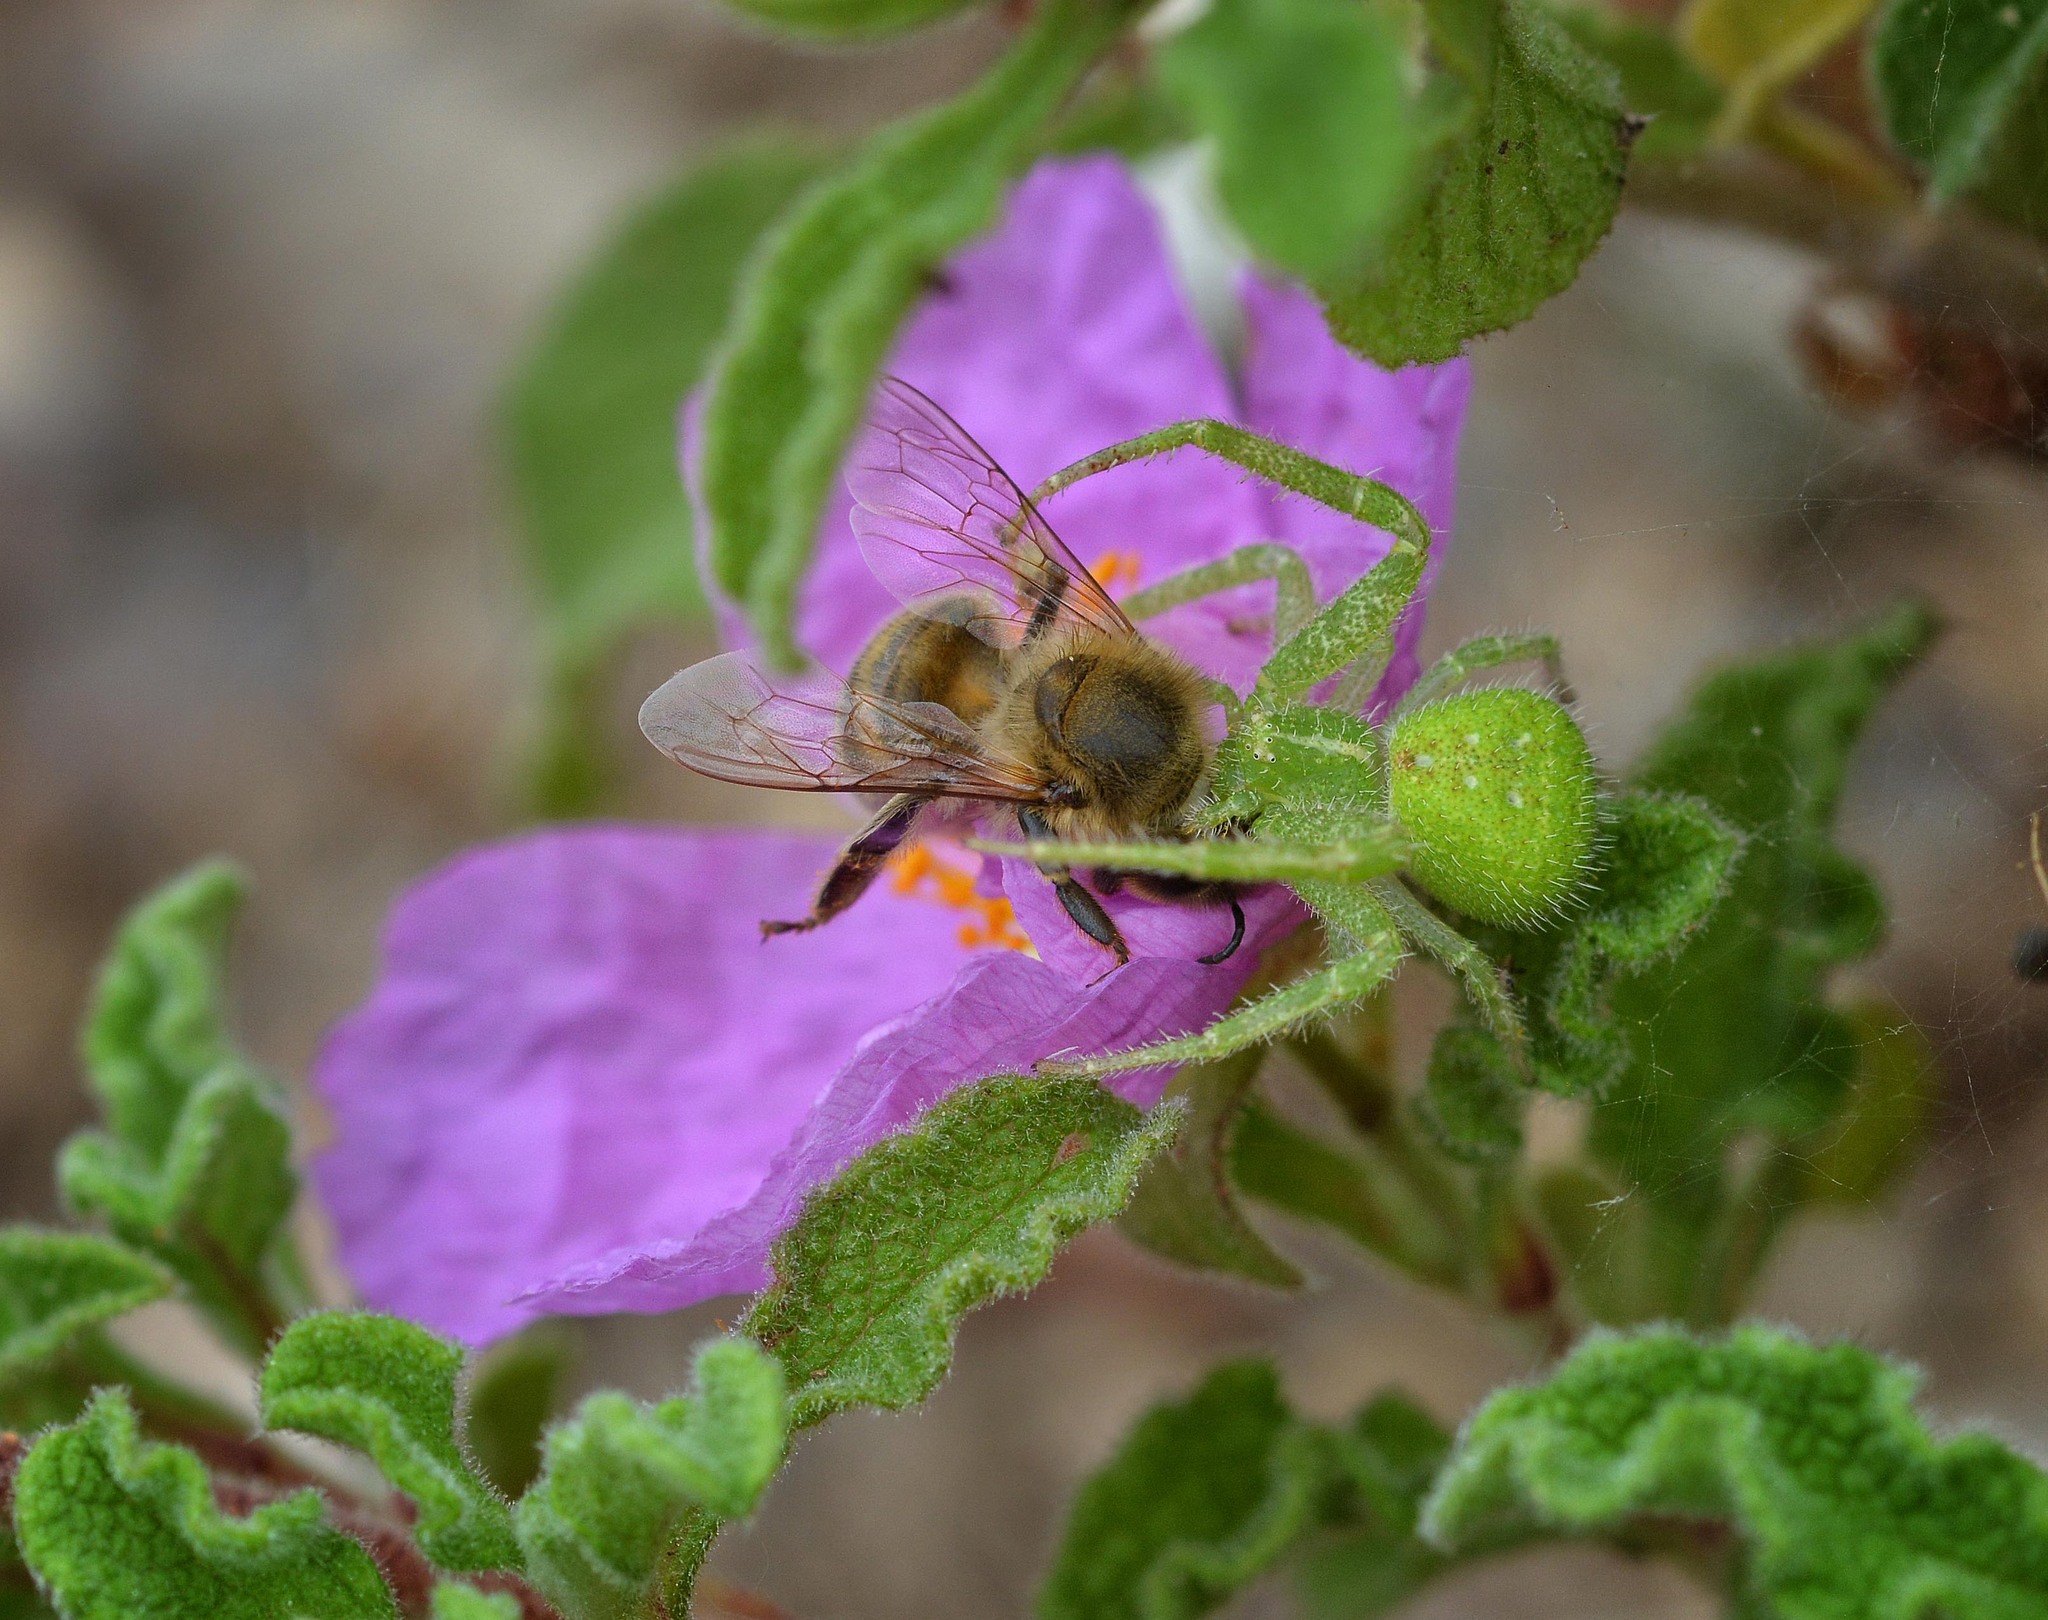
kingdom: Animalia
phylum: Arthropoda
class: Arachnida
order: Araneae
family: Thomisidae
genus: Heriaeus
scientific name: Heriaeus
